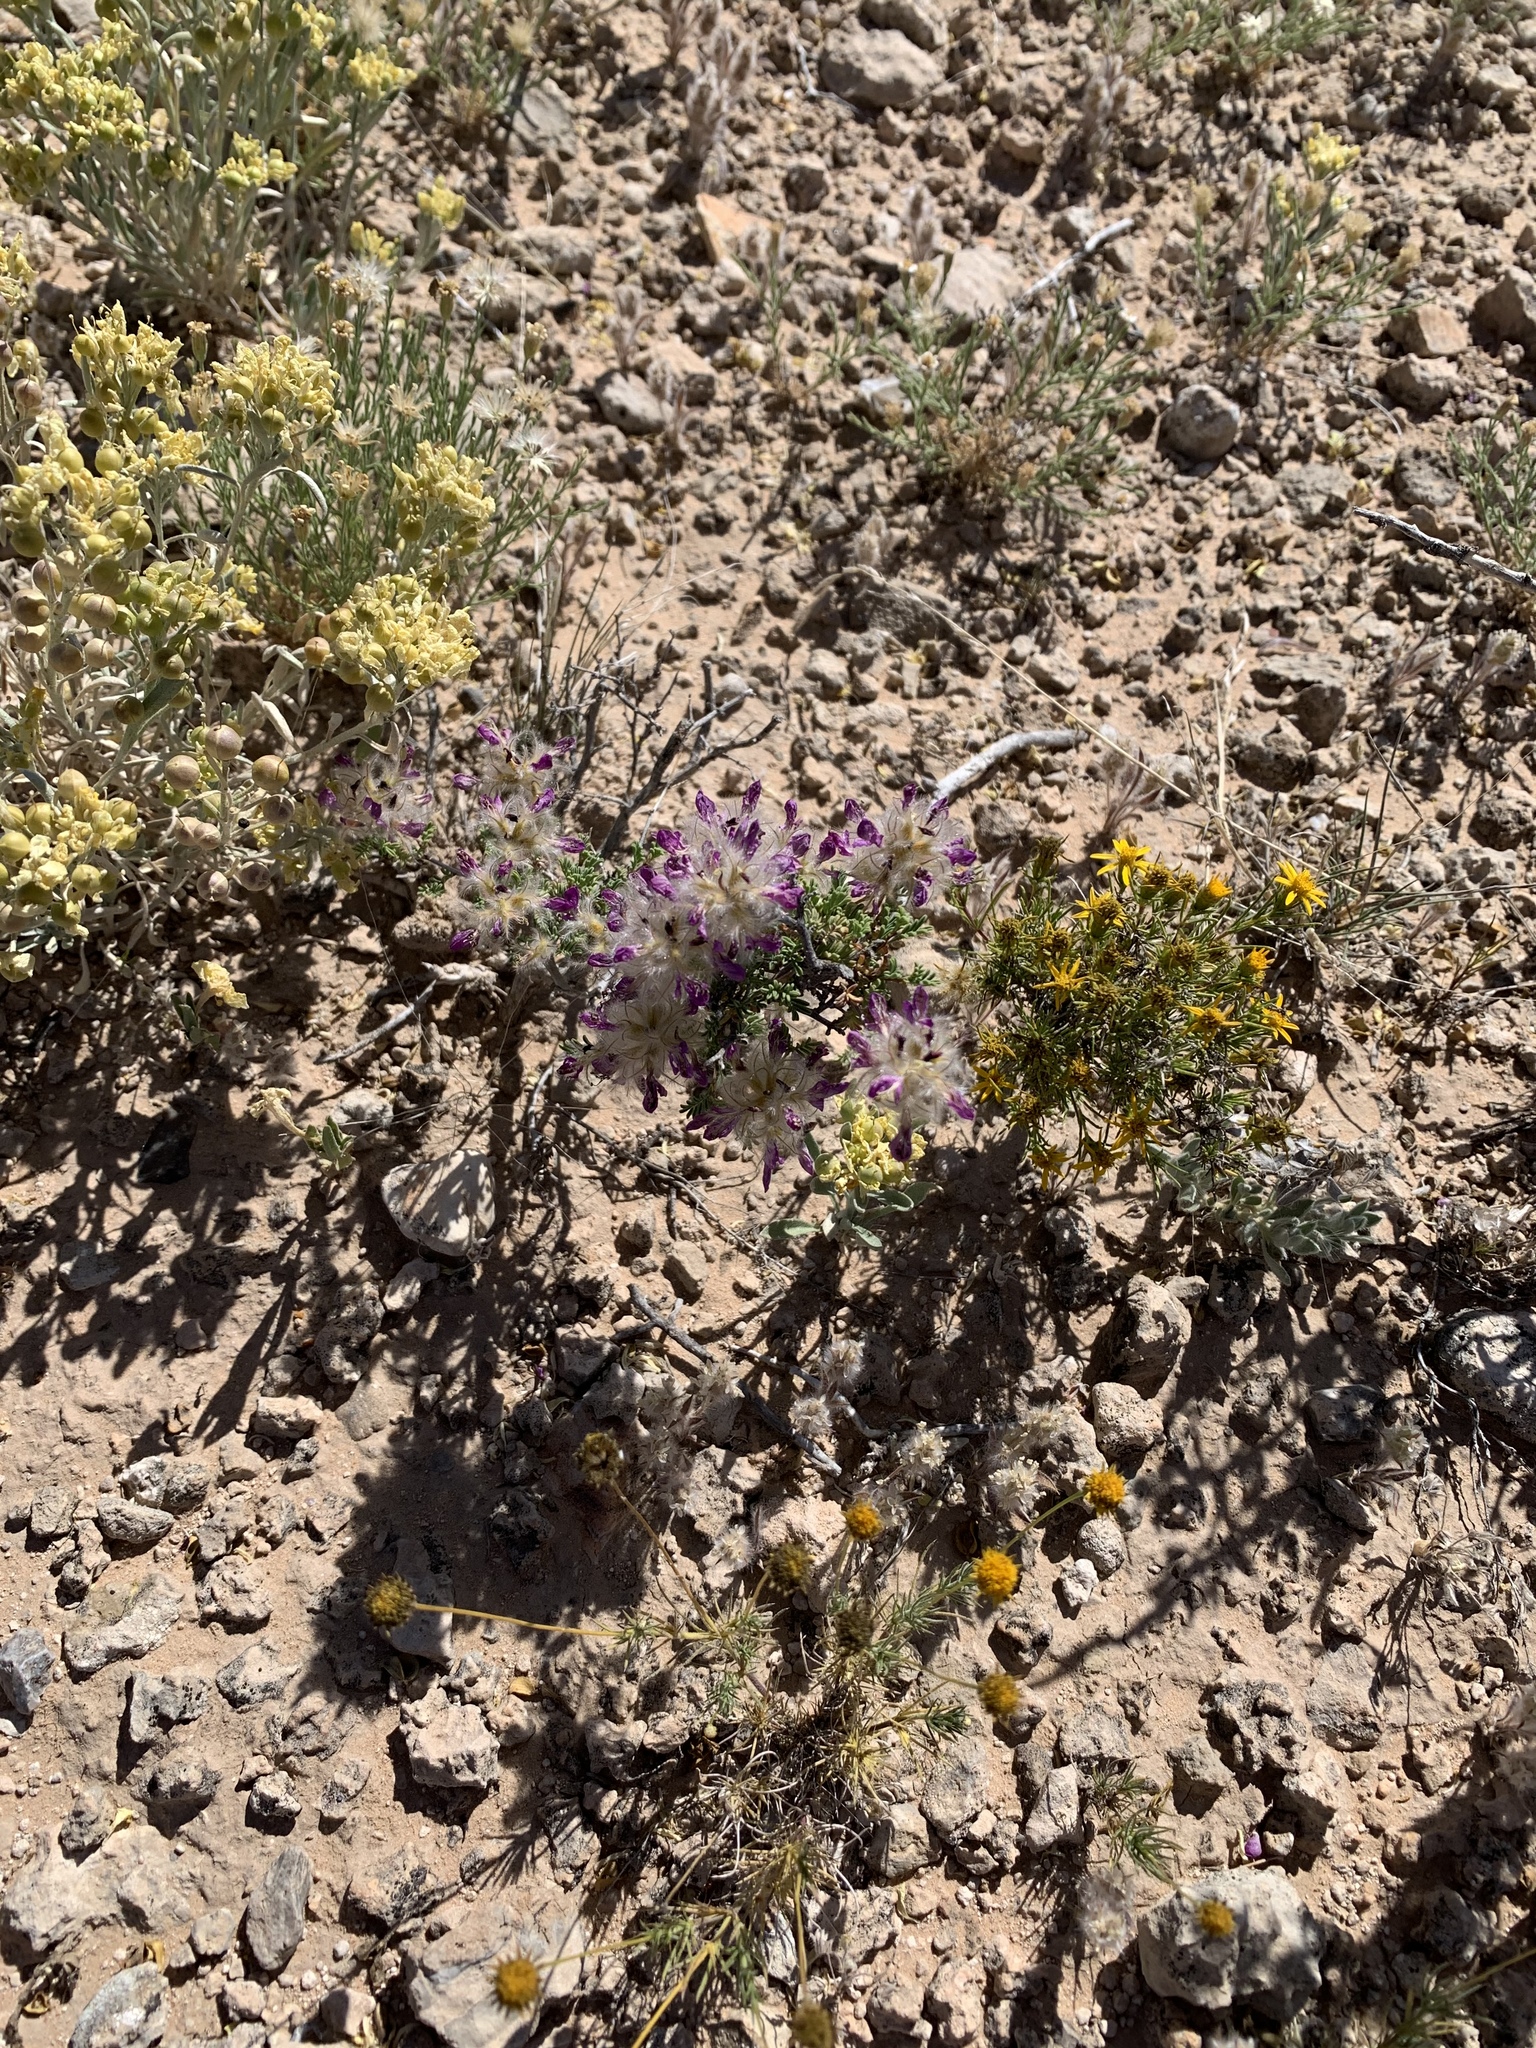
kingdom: Plantae
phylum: Tracheophyta
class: Magnoliopsida
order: Fabales
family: Fabaceae
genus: Dalea
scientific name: Dalea formosa
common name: Feather-plume dalea
